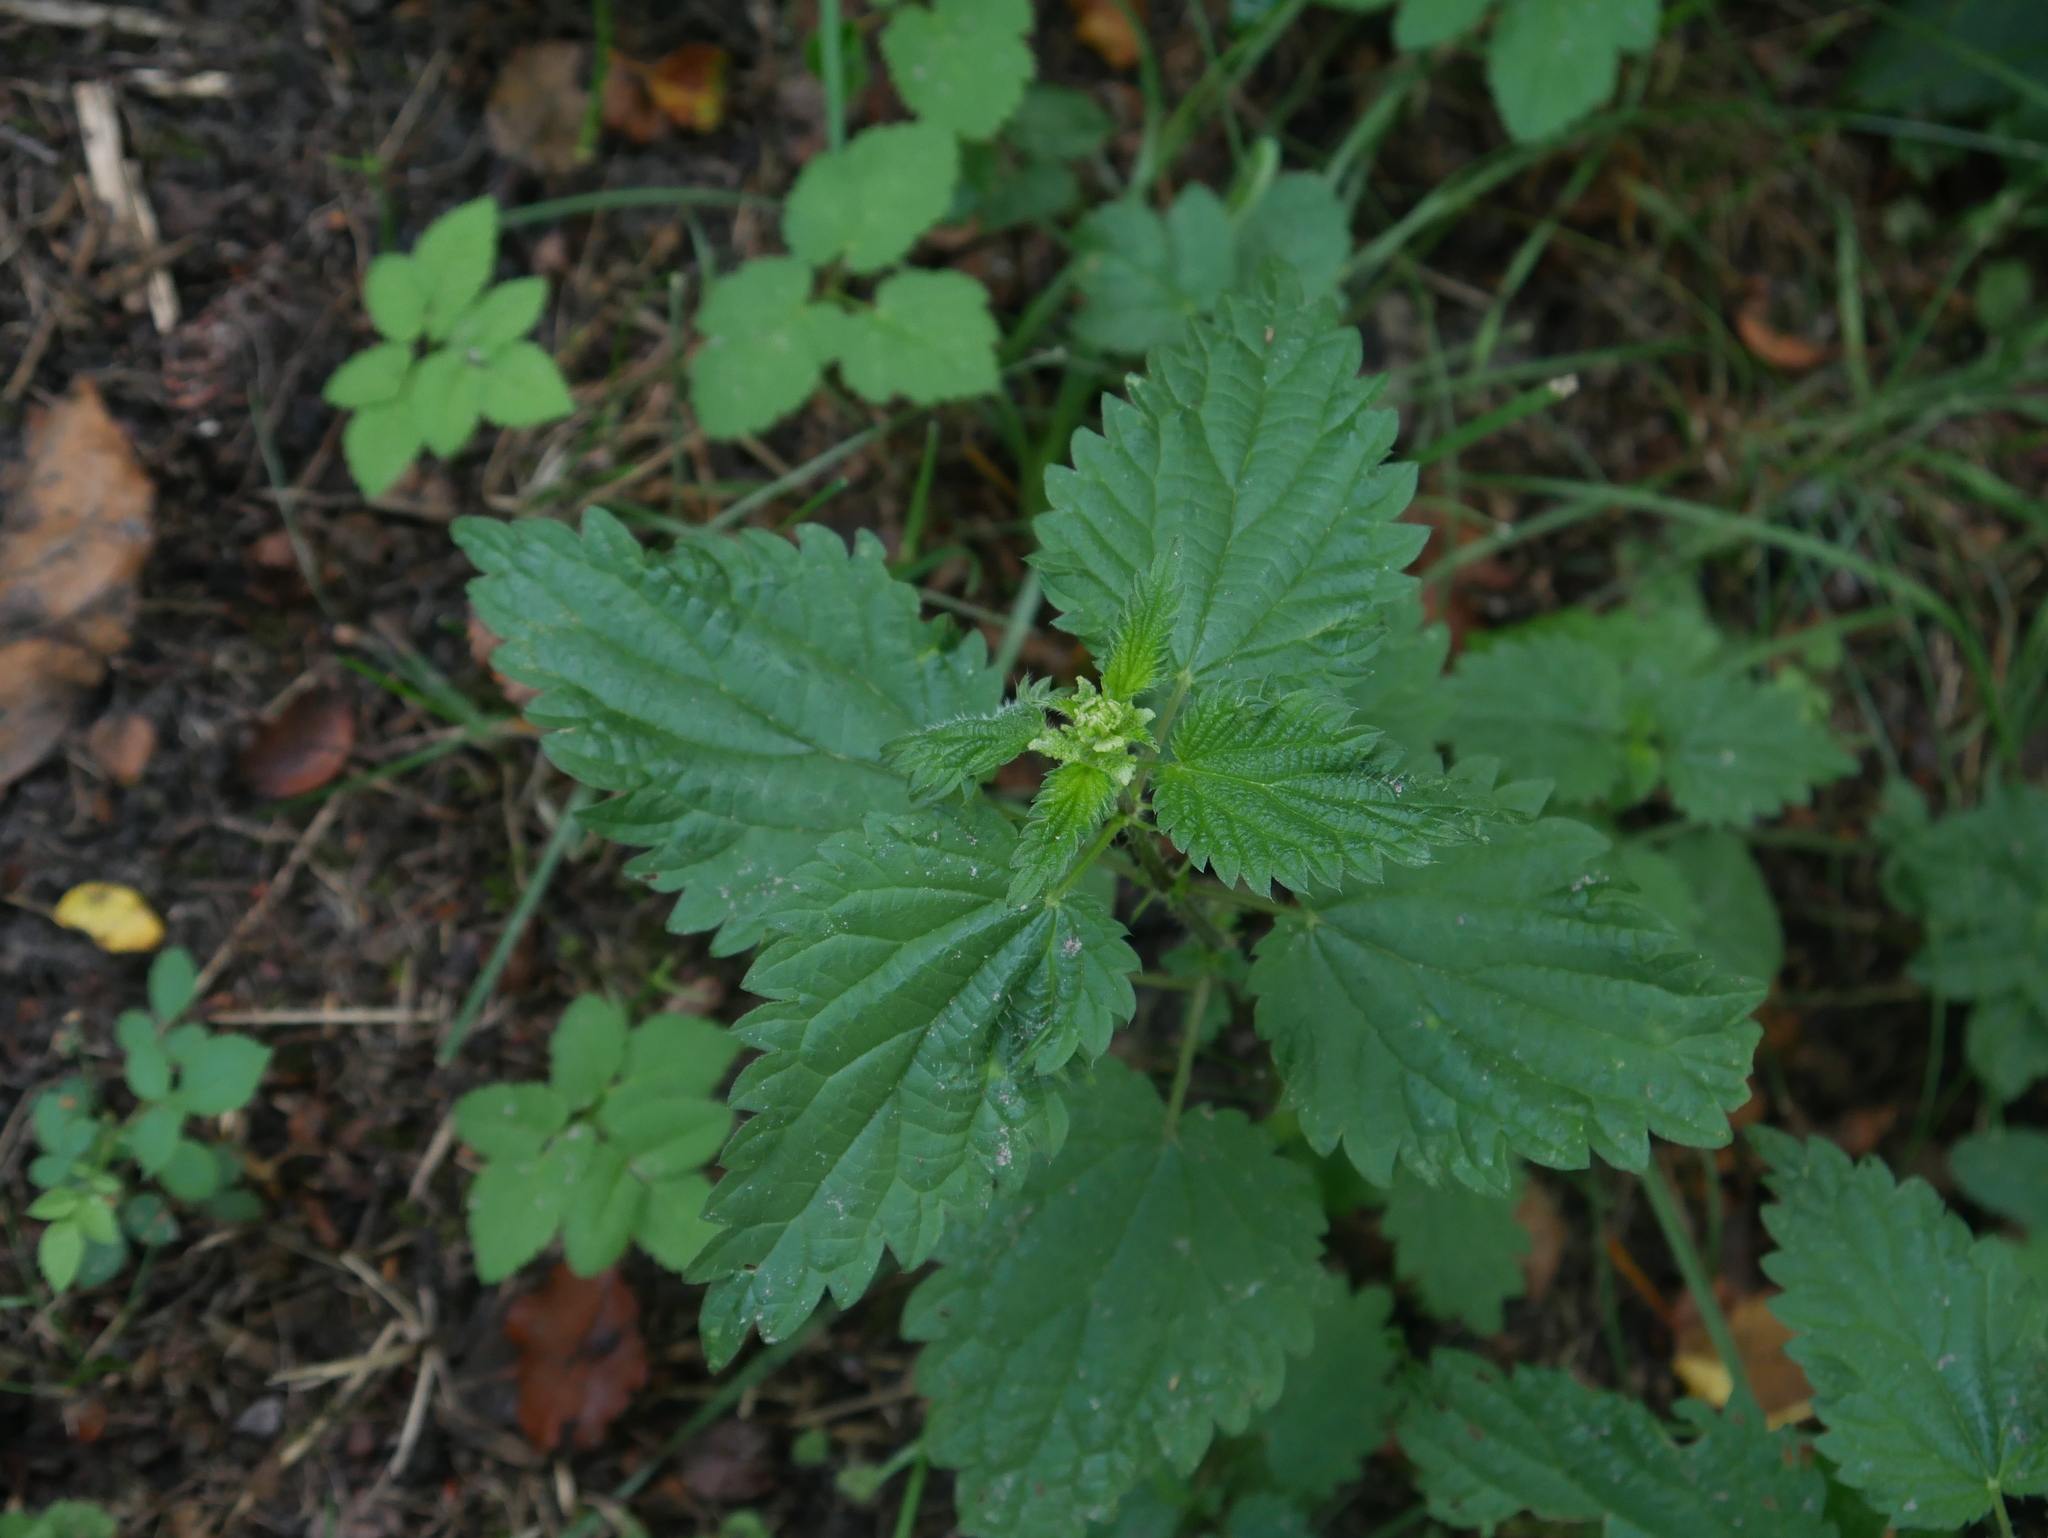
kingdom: Plantae
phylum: Tracheophyta
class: Magnoliopsida
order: Rosales
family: Urticaceae
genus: Urtica
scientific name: Urtica dioica
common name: Common nettle
